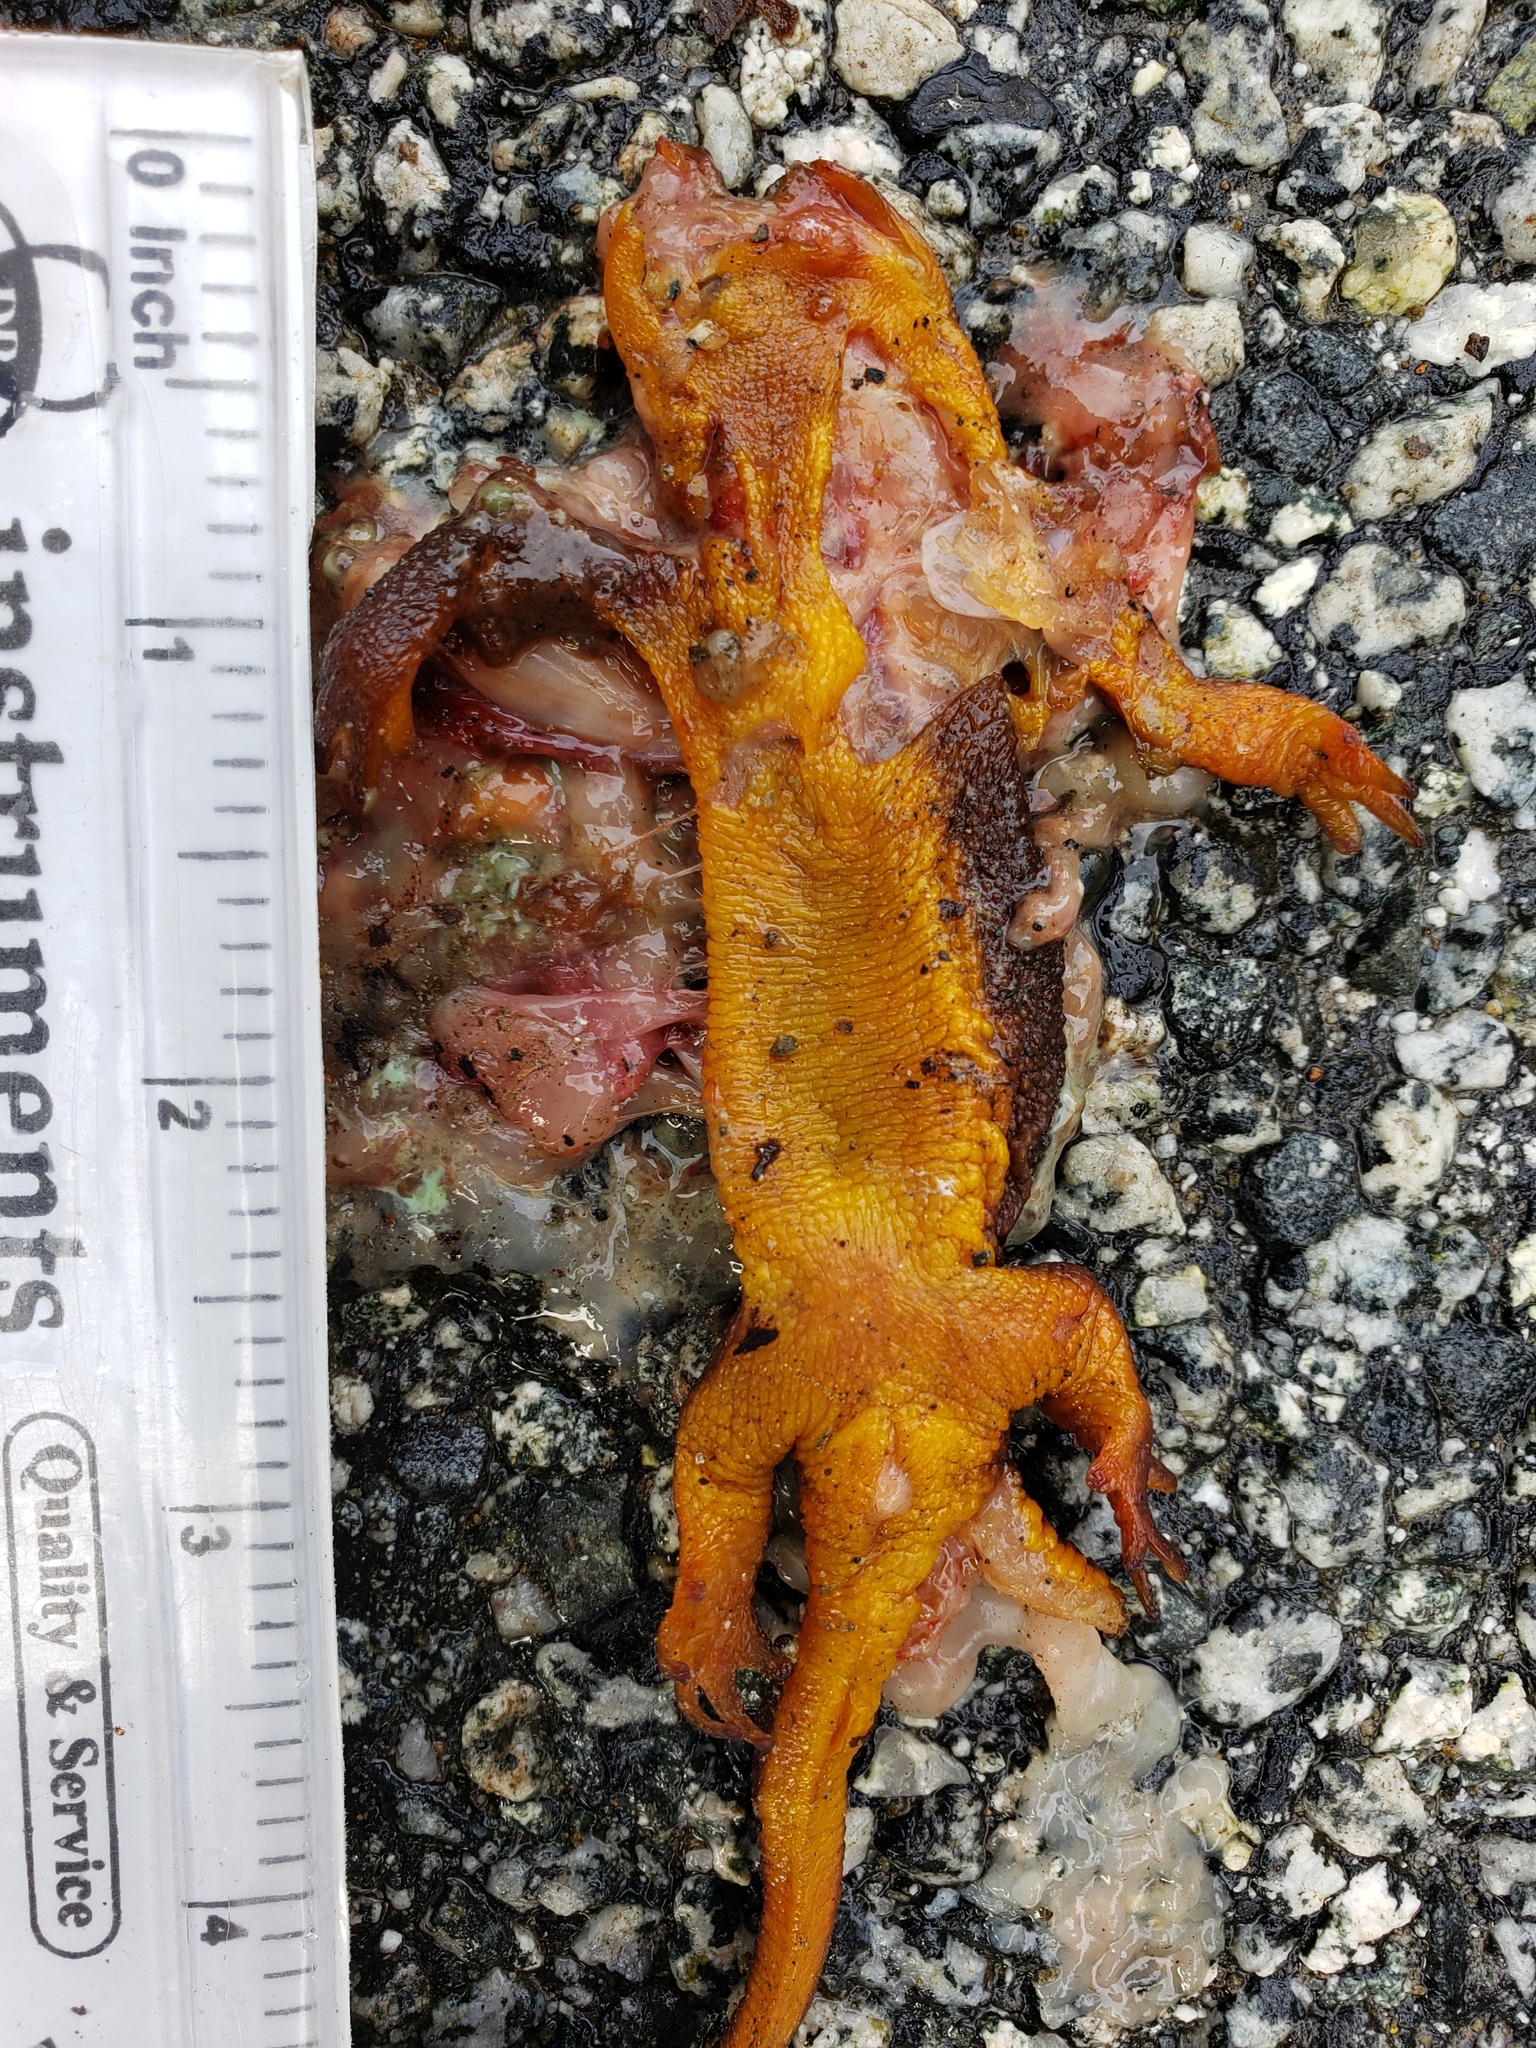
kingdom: Animalia
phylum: Chordata
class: Amphibia
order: Caudata
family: Salamandridae
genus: Taricha
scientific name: Taricha
